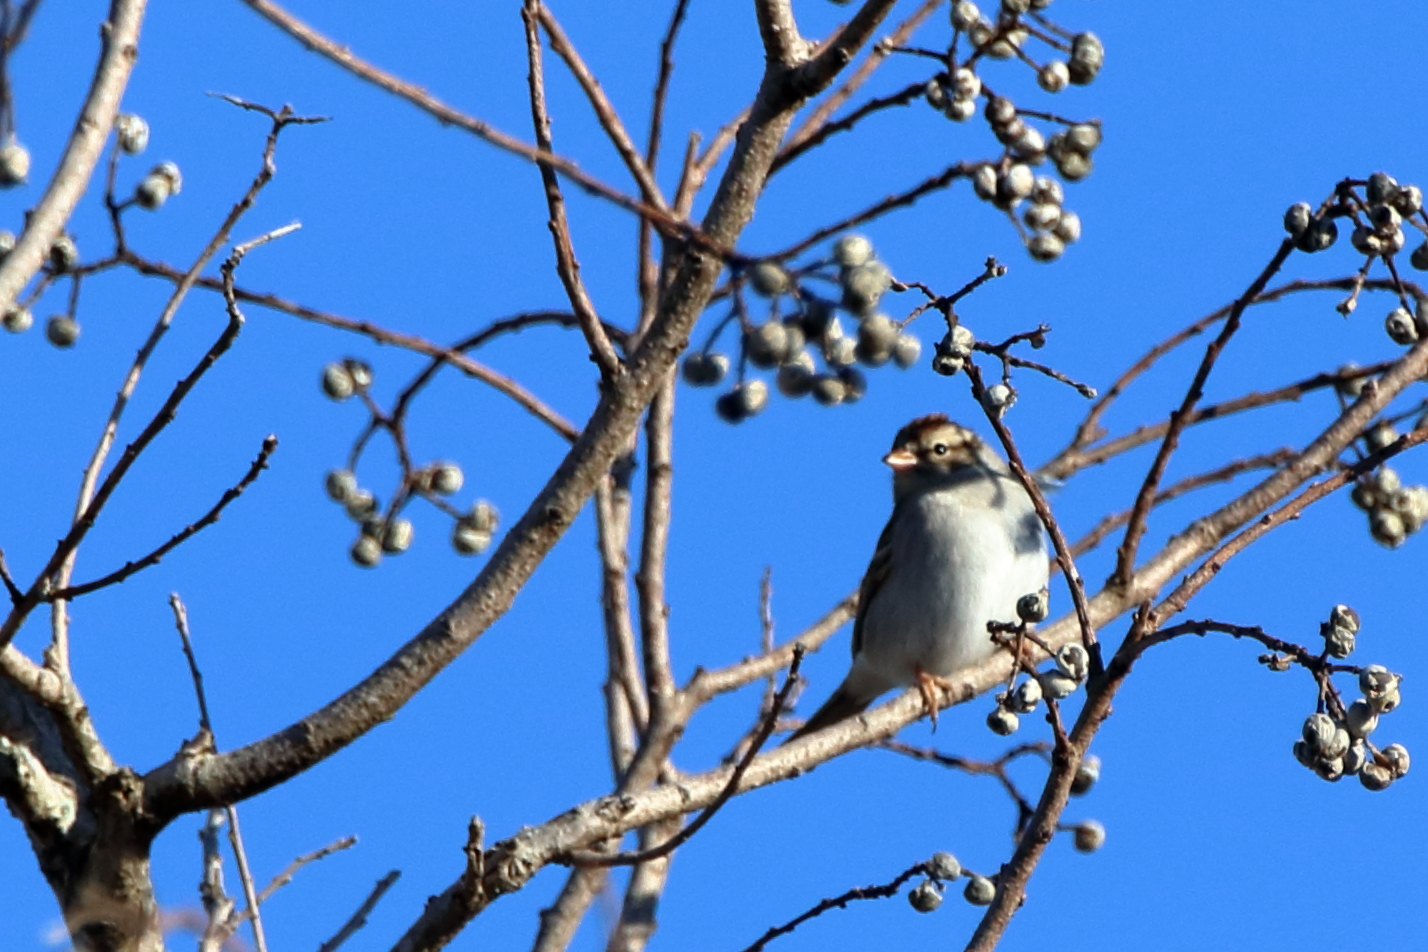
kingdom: Animalia
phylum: Chordata
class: Aves
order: Passeriformes
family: Passerellidae
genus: Spizella
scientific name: Spizella passerina
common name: Chipping sparrow
